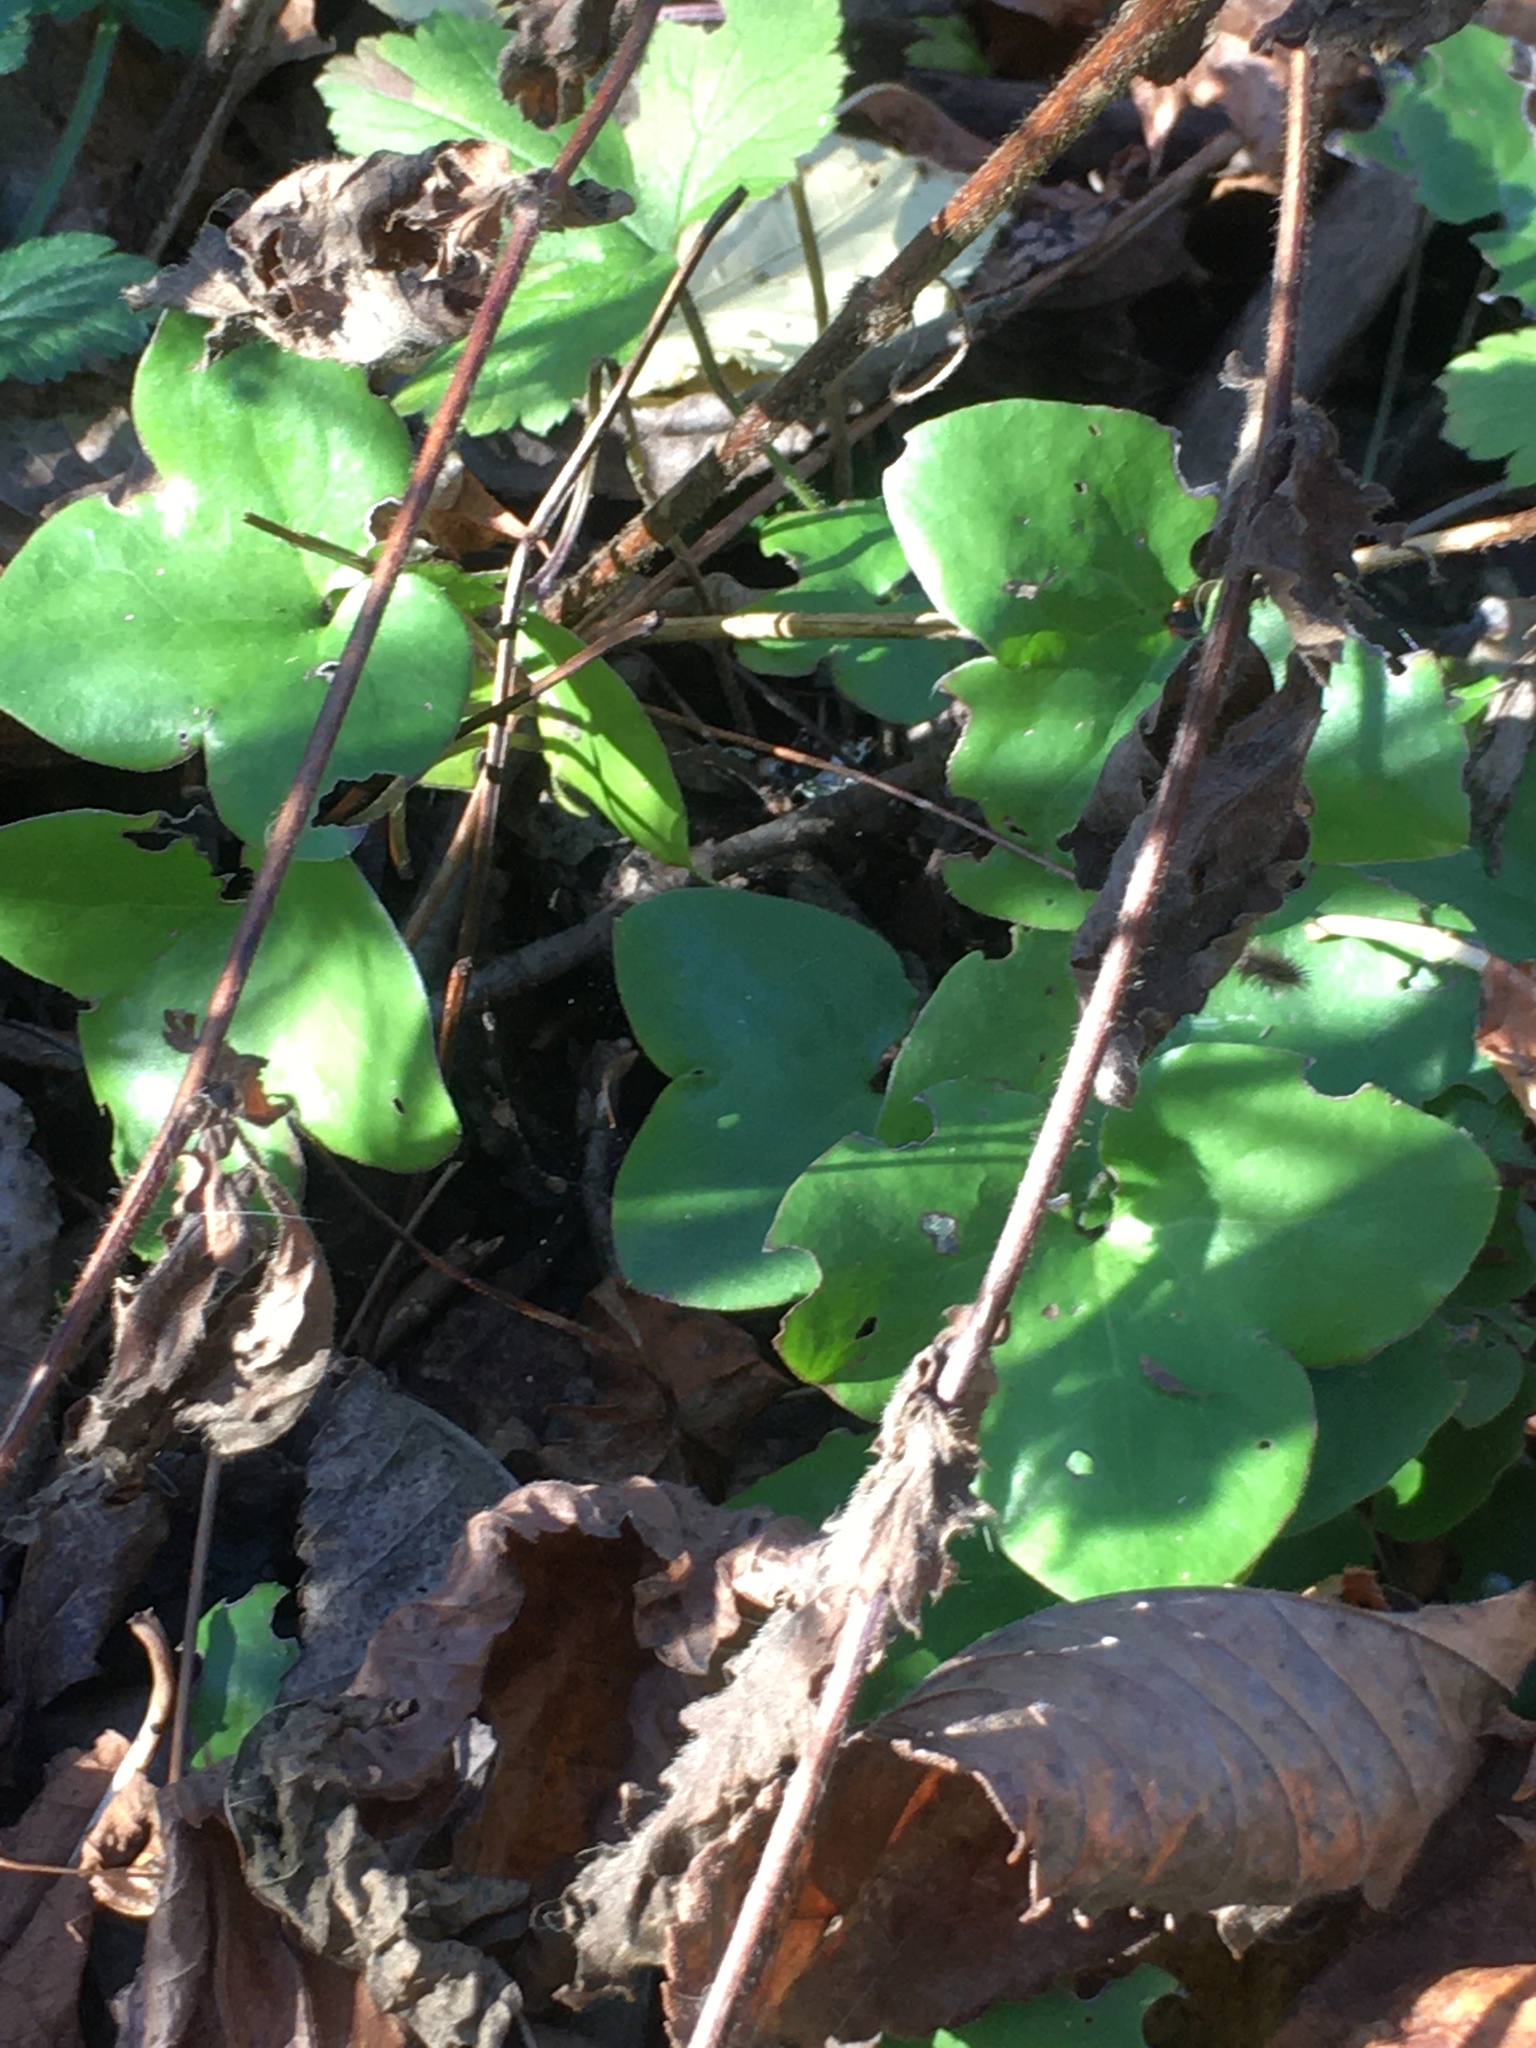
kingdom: Plantae
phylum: Tracheophyta
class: Magnoliopsida
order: Ranunculales
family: Ranunculaceae
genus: Hepatica
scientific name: Hepatica nobilis
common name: Liverleaf
